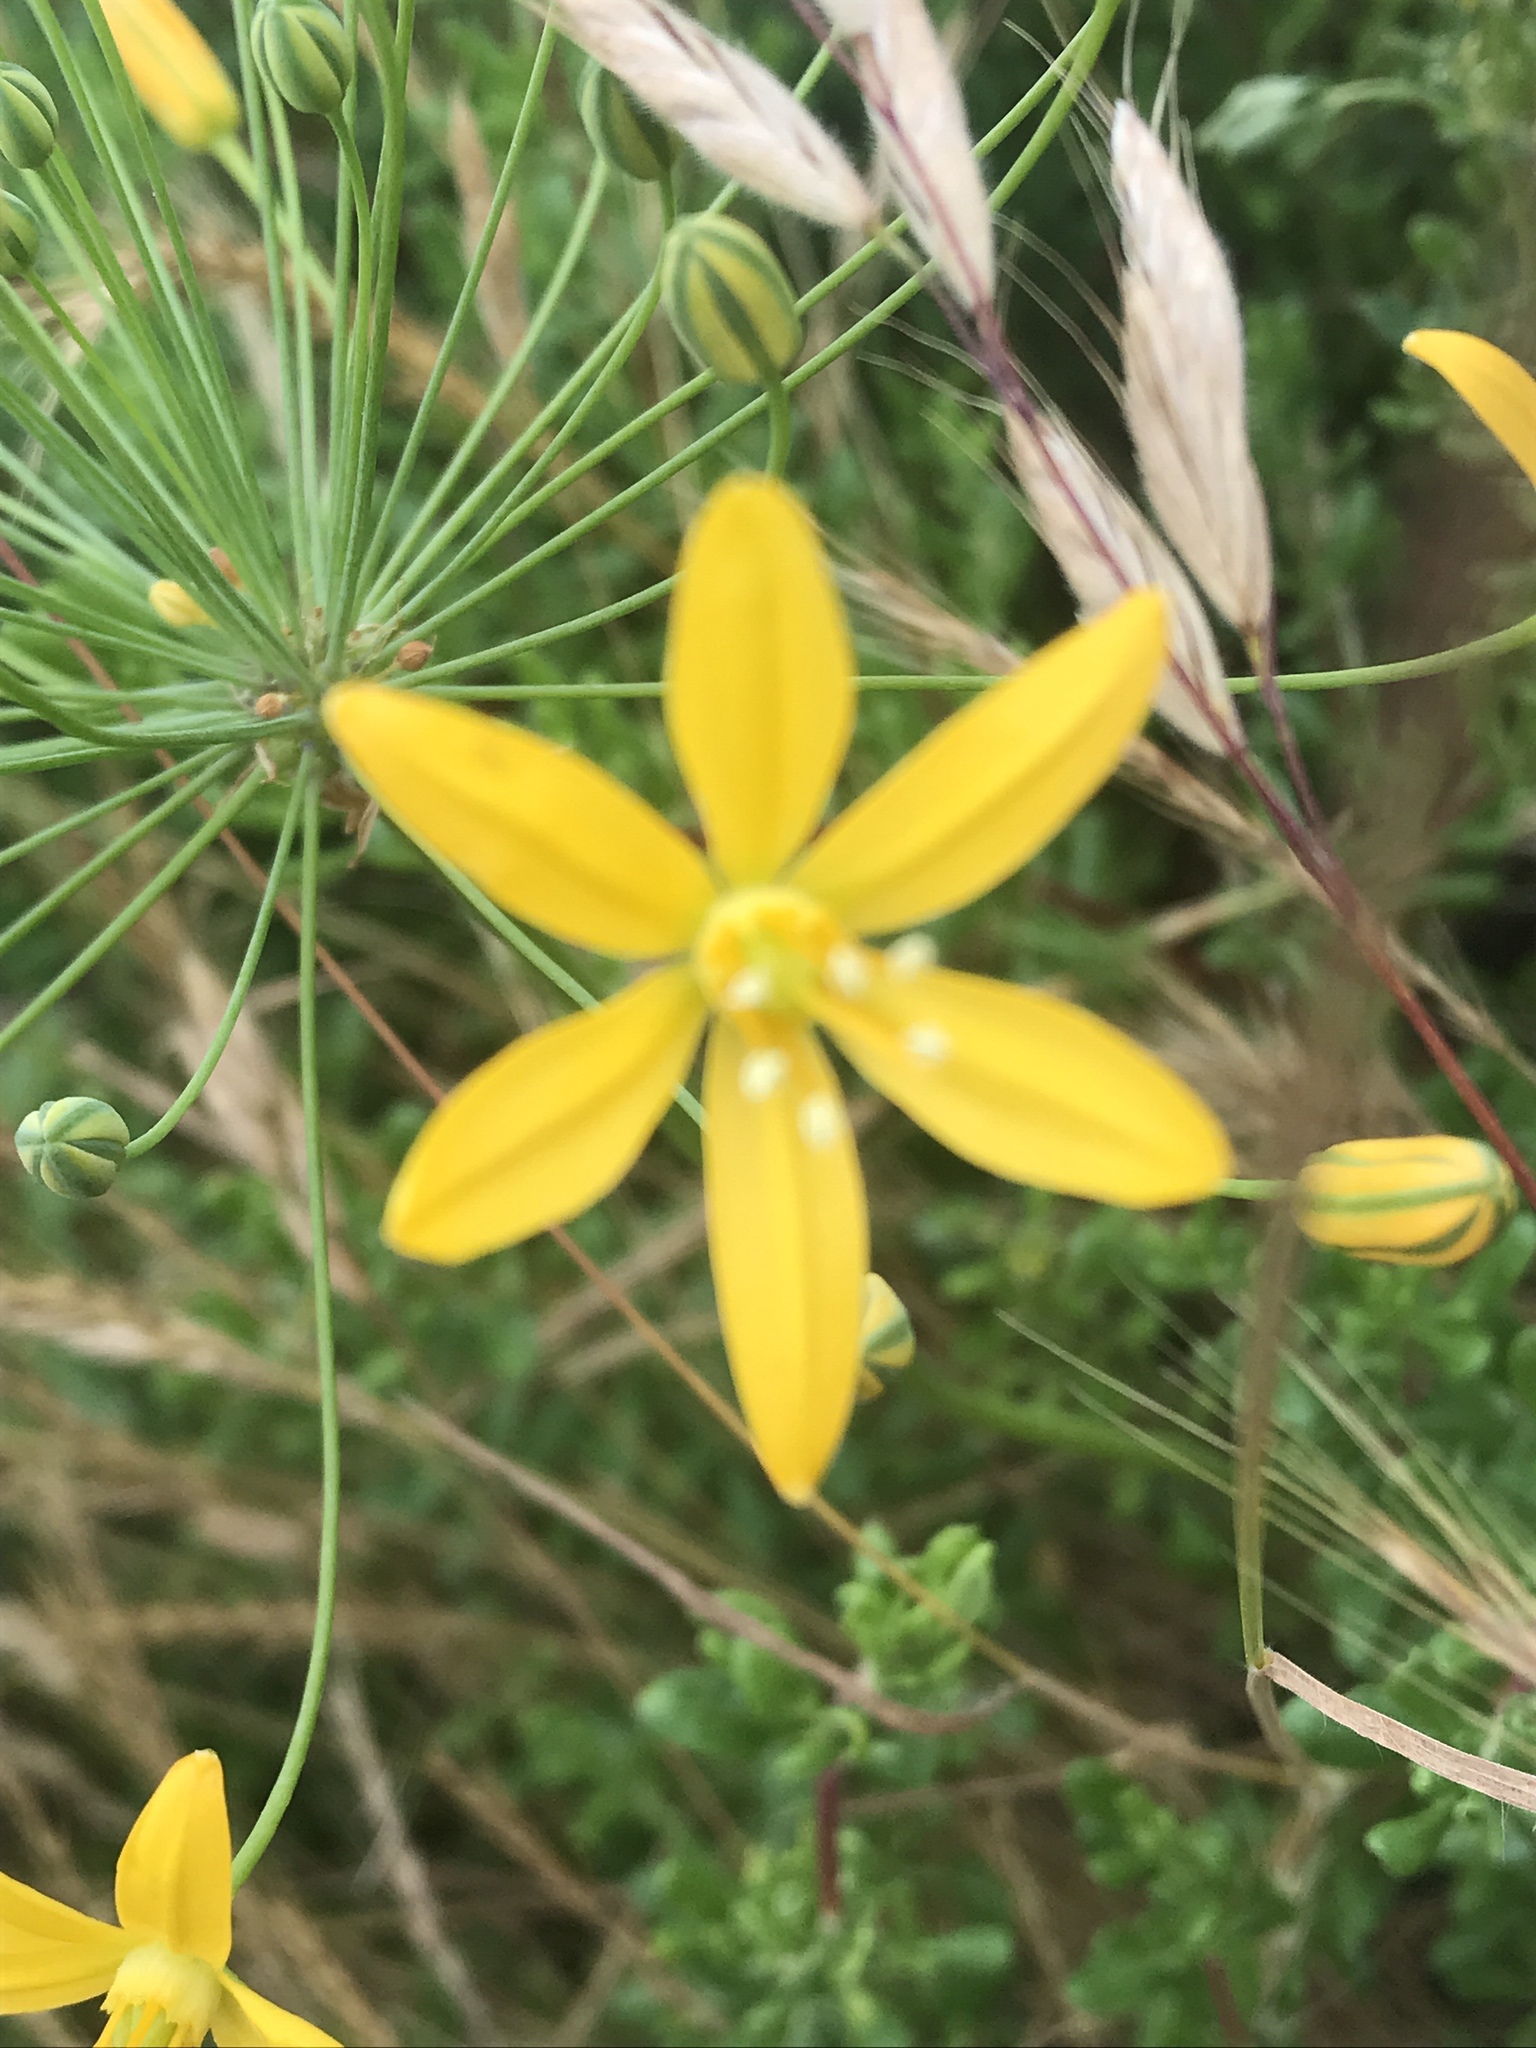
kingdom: Plantae
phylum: Tracheophyta
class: Liliopsida
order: Asparagales
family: Asparagaceae
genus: Bloomeria
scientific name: Bloomeria crocea
